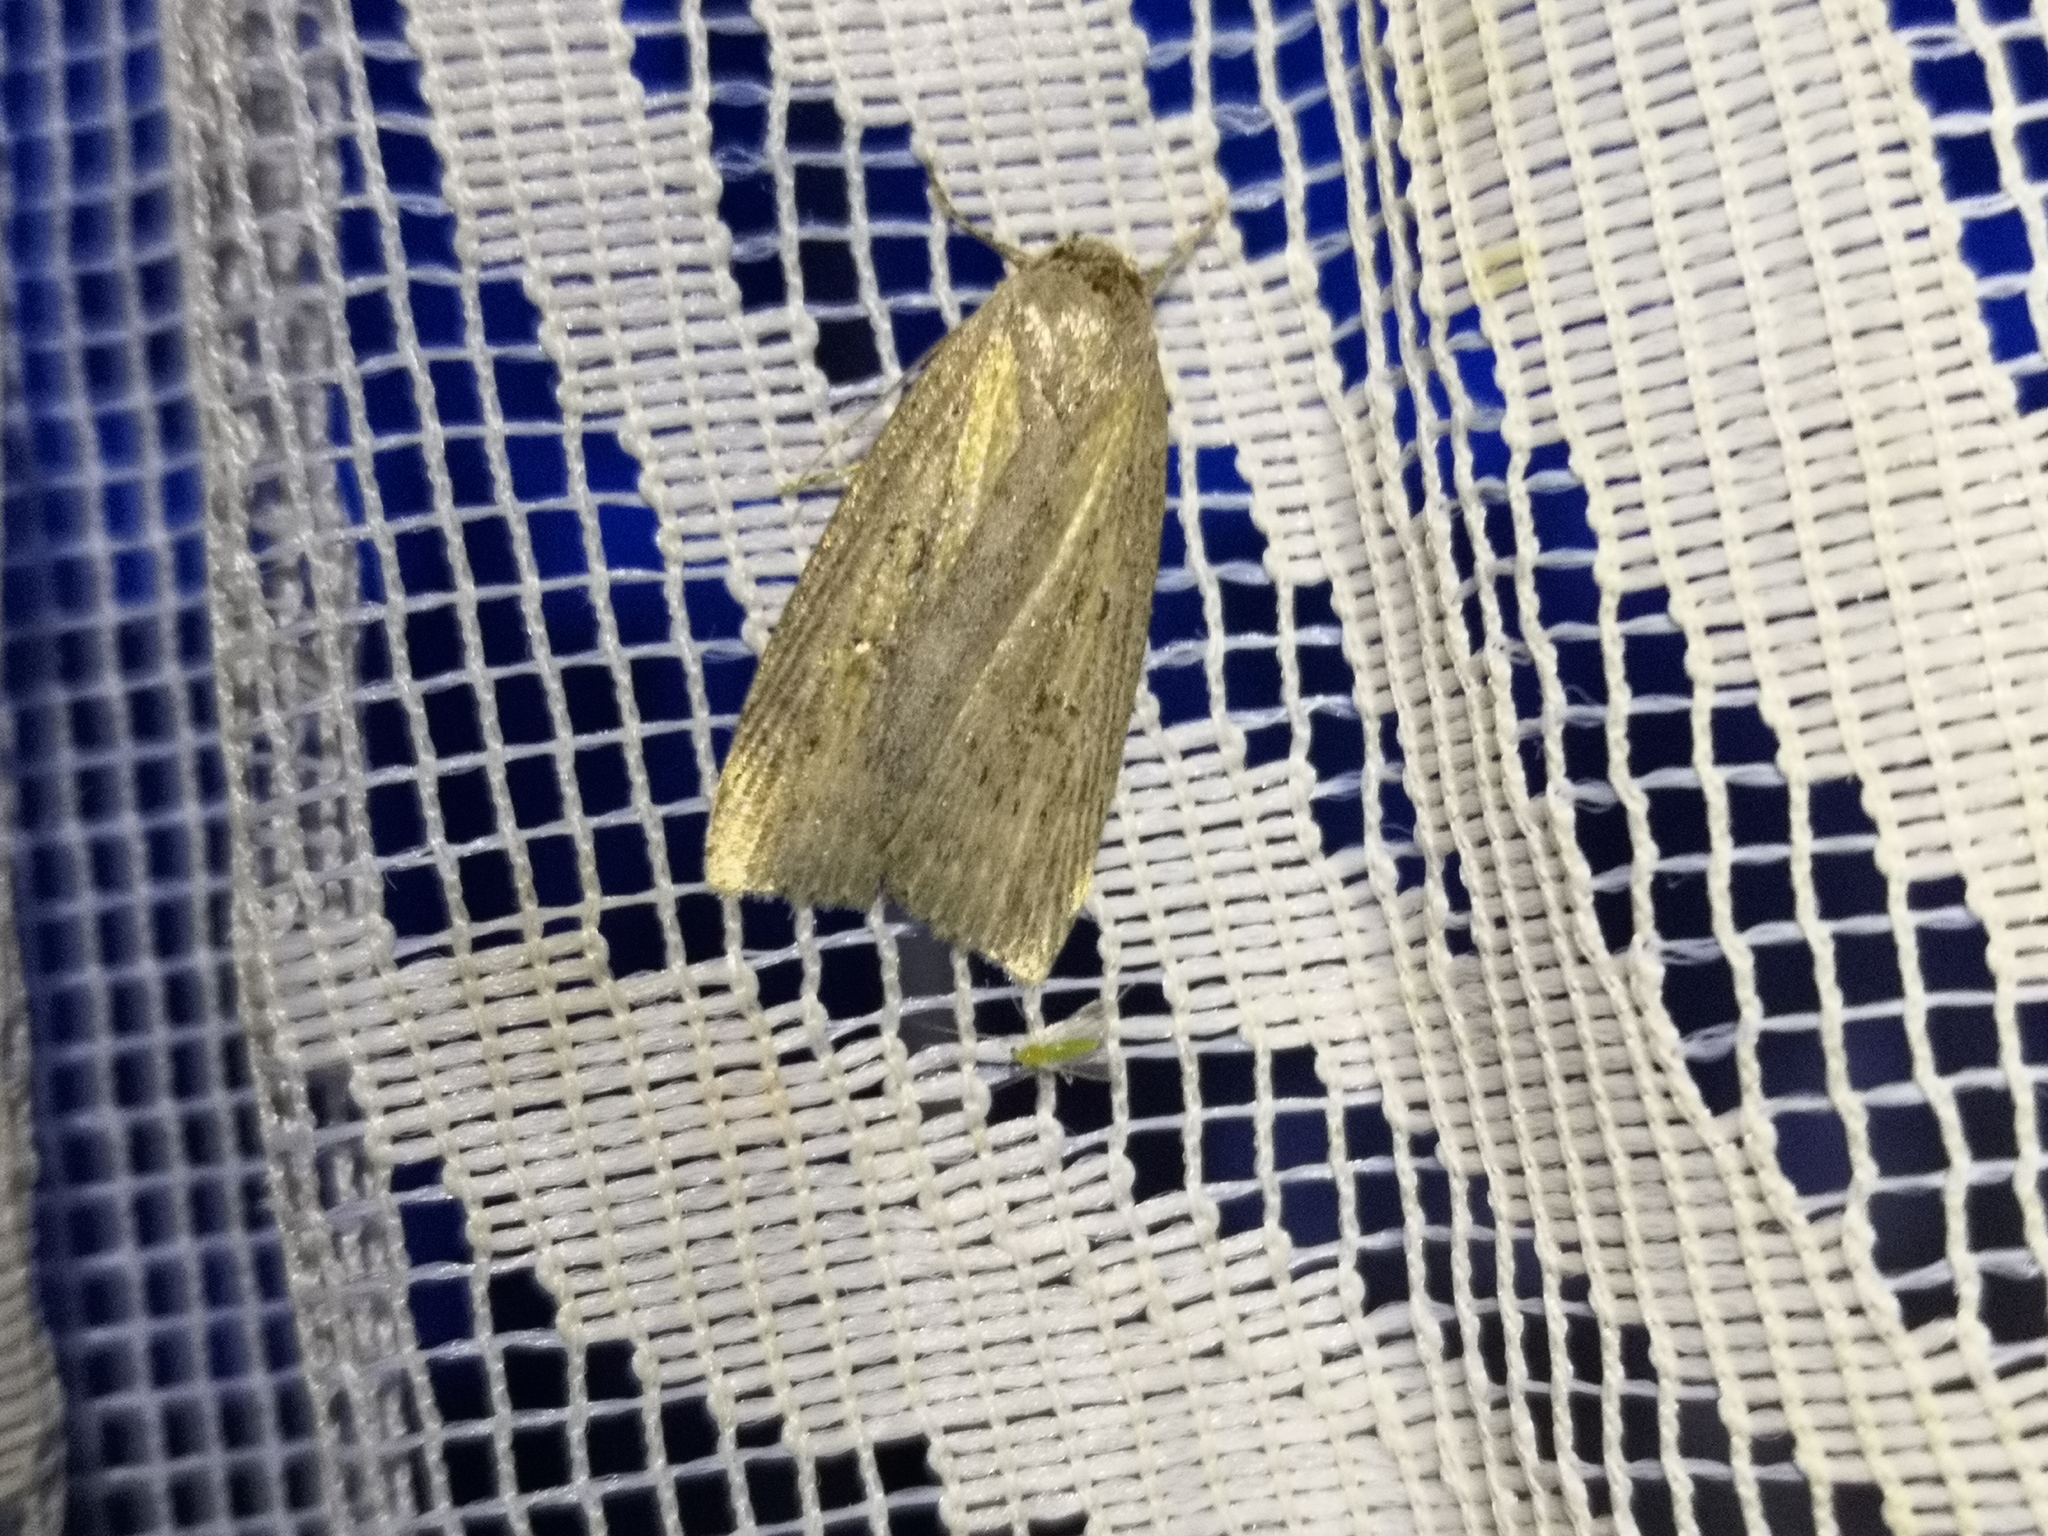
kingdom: Animalia
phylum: Arthropoda
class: Insecta
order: Lepidoptera
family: Noctuidae
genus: Chilodes
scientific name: Chilodes maritima
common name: Silky wainscot
